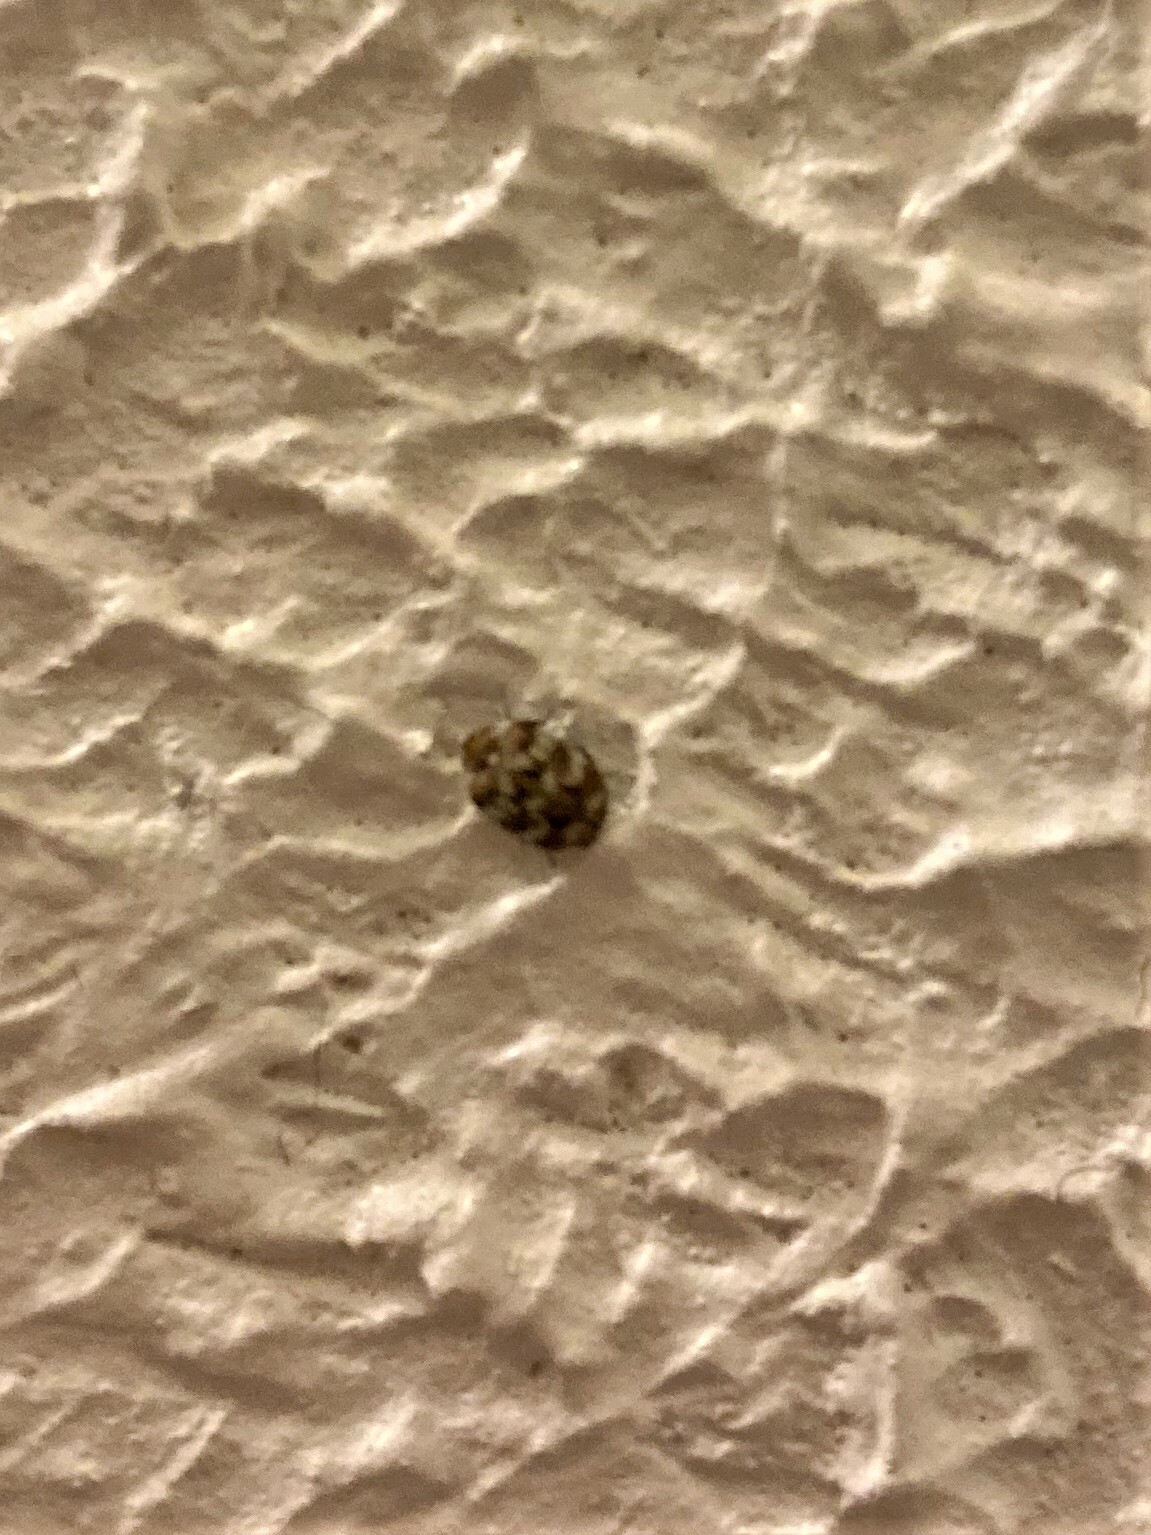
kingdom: Animalia
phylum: Arthropoda
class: Insecta
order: Coleoptera
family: Dermestidae
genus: Anthrenus
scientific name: Anthrenus verbasci
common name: Varied carpet beetle
